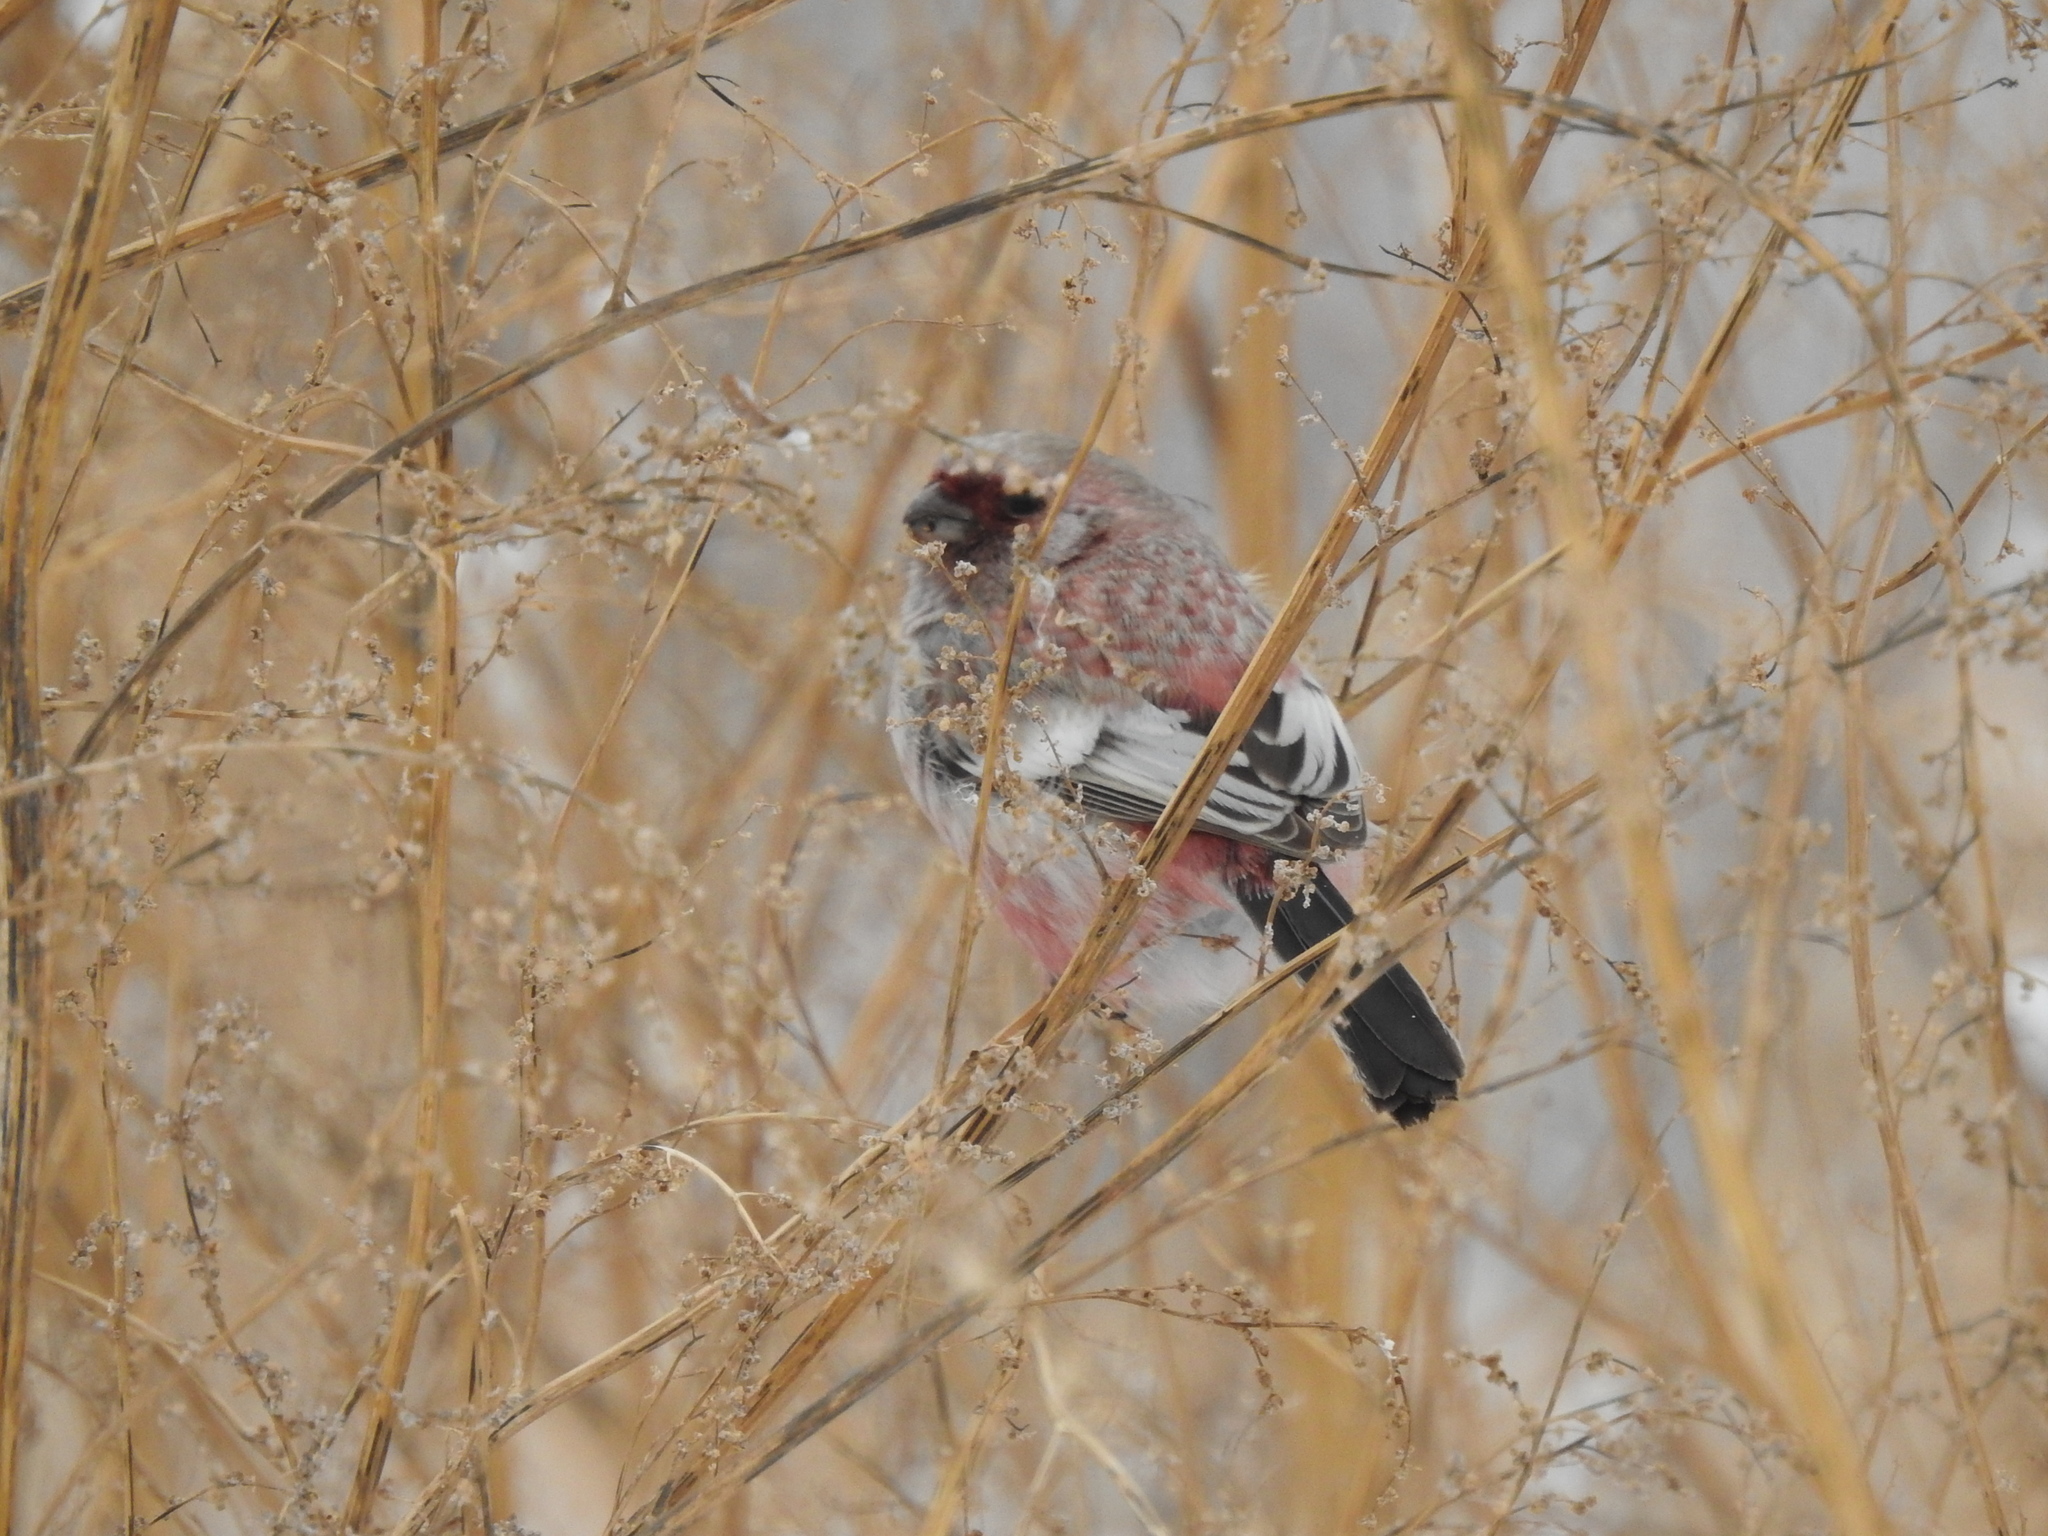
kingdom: Animalia
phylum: Chordata
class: Aves
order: Passeriformes
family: Fringillidae
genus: Carpodacus
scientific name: Carpodacus sibiricus
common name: Long-tailed rosefinch
